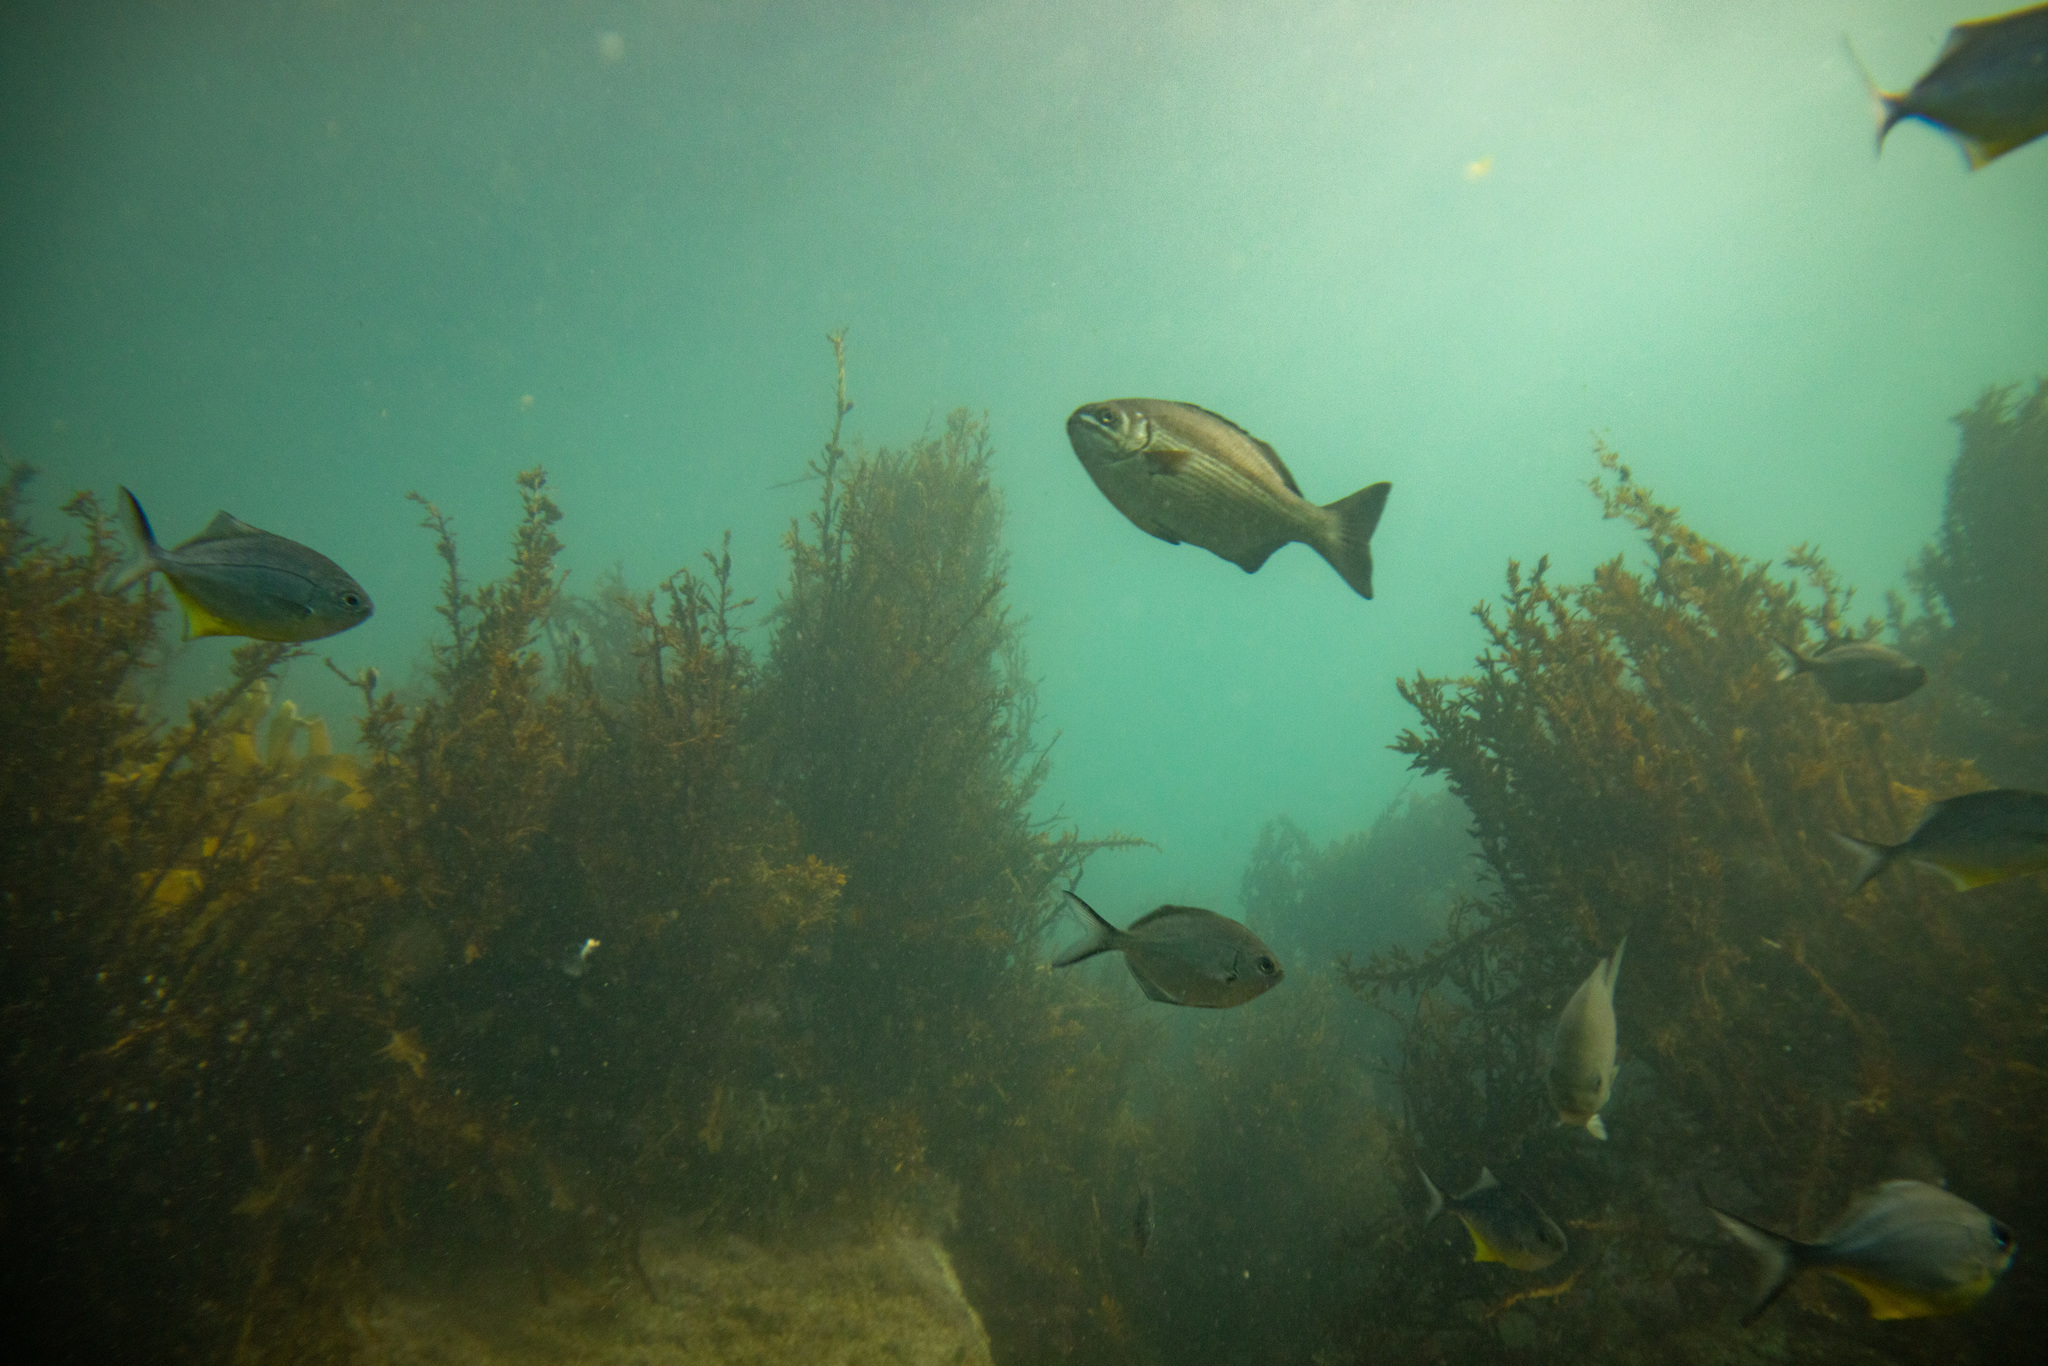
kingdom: Animalia
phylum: Chordata
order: Perciformes
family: Kyphosidae
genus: Kyphosus
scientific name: Kyphosus sydneyanus
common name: Silver drummer
